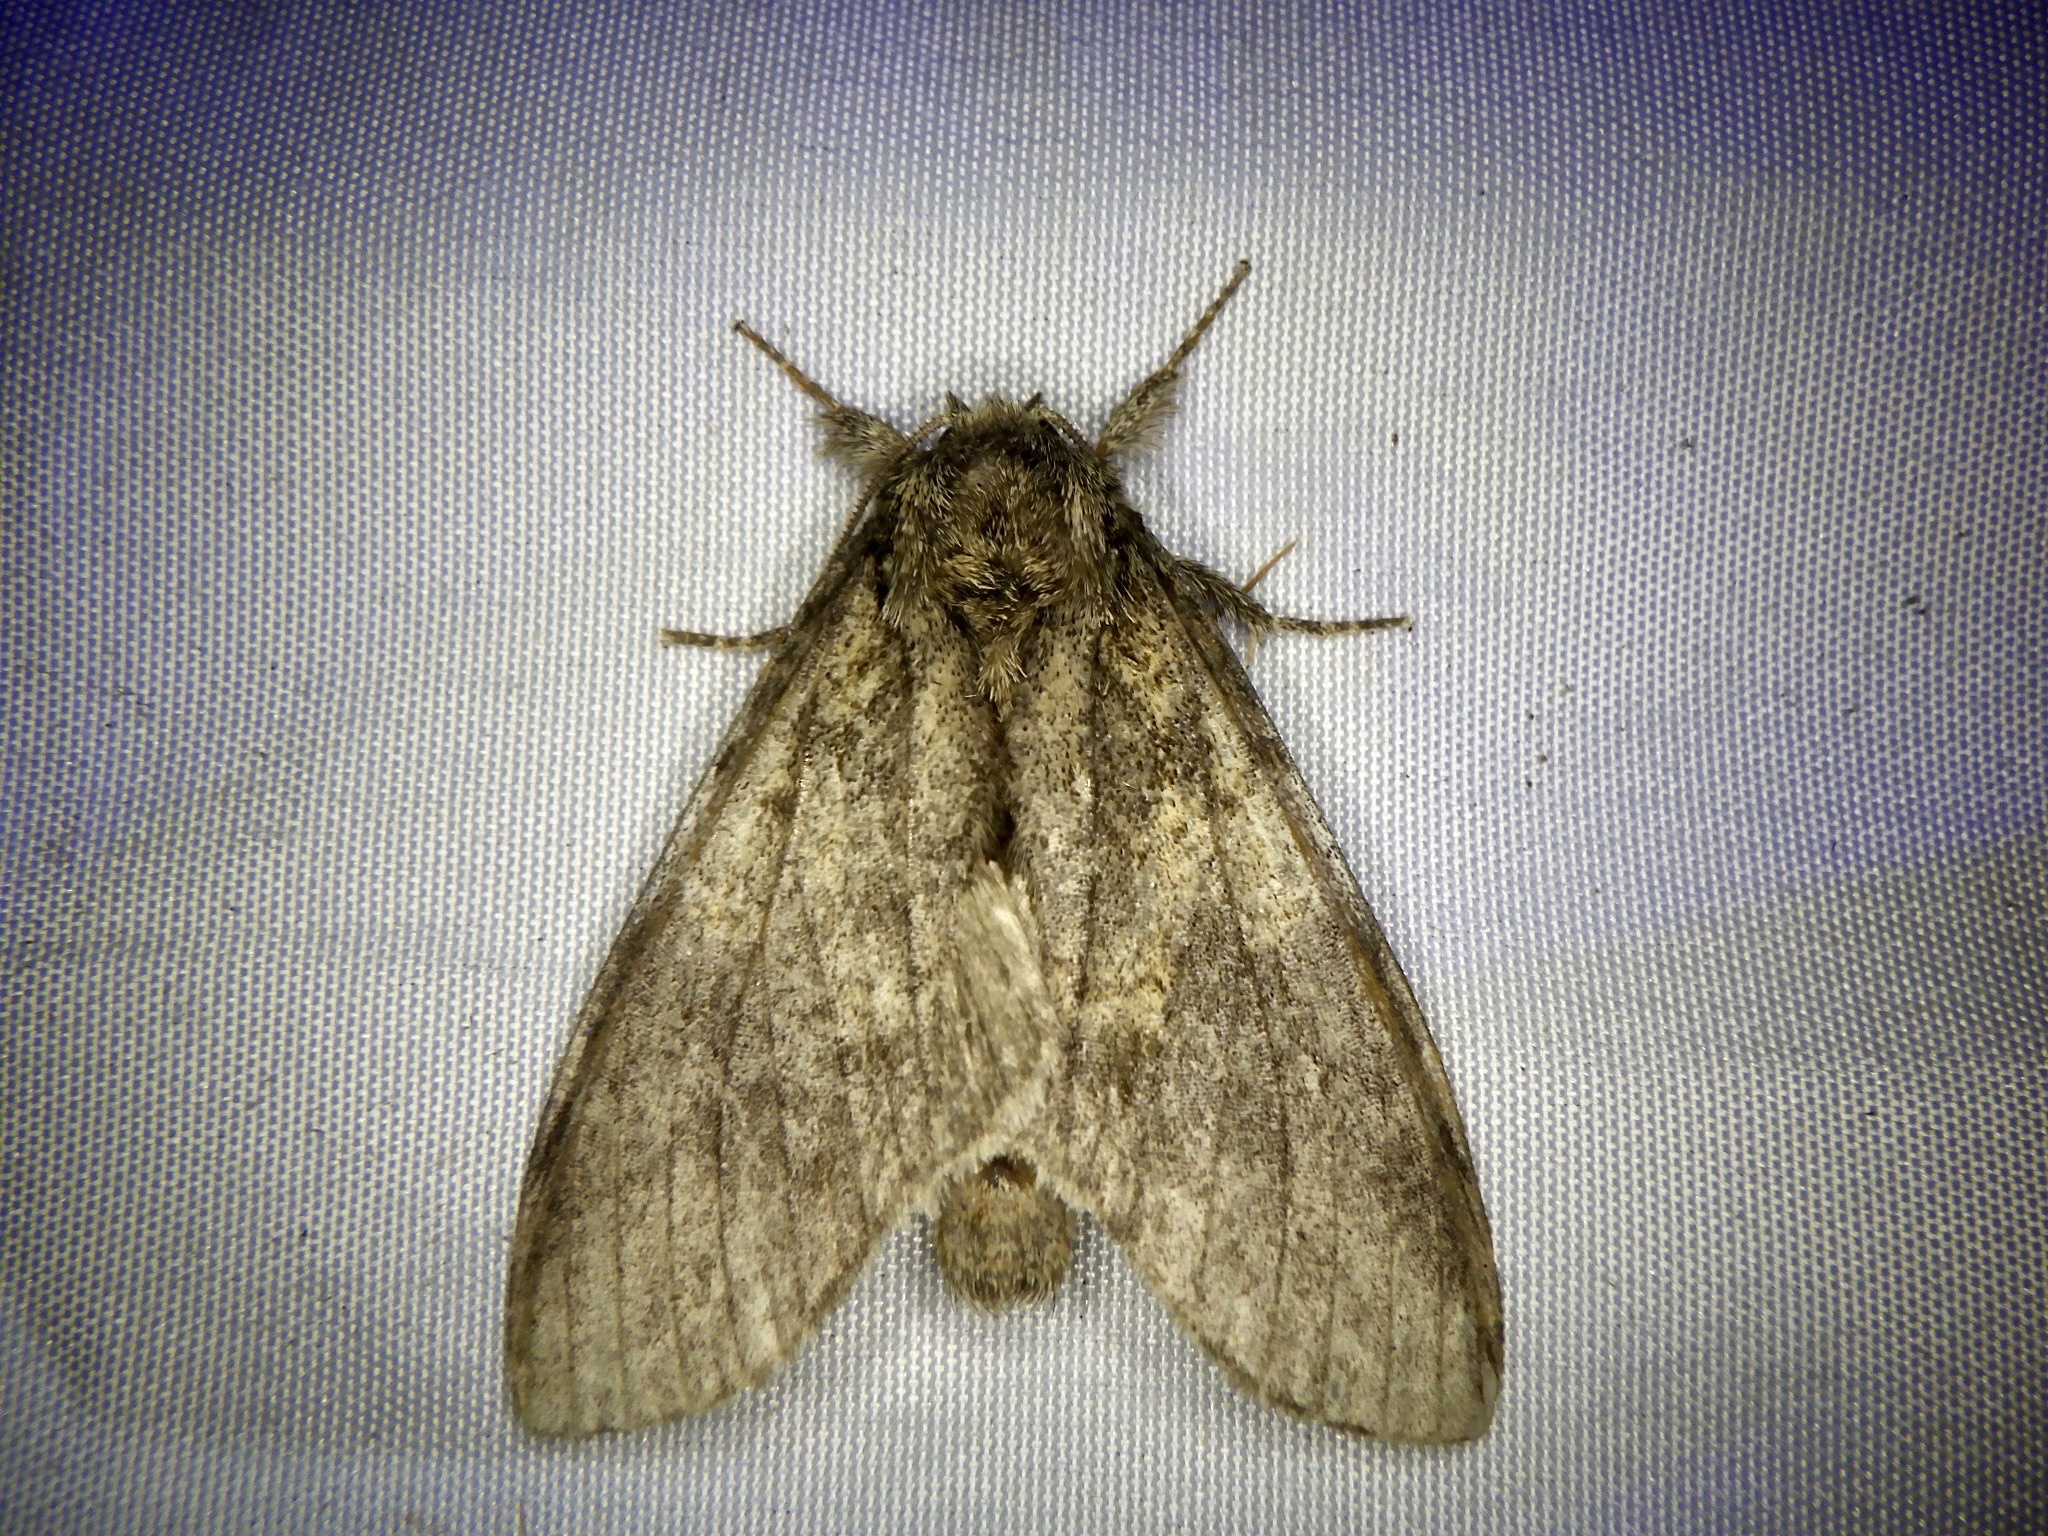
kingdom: Animalia
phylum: Arthropoda
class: Insecta
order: Lepidoptera
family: Notodontidae
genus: Peridea
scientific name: Peridea gigantea
